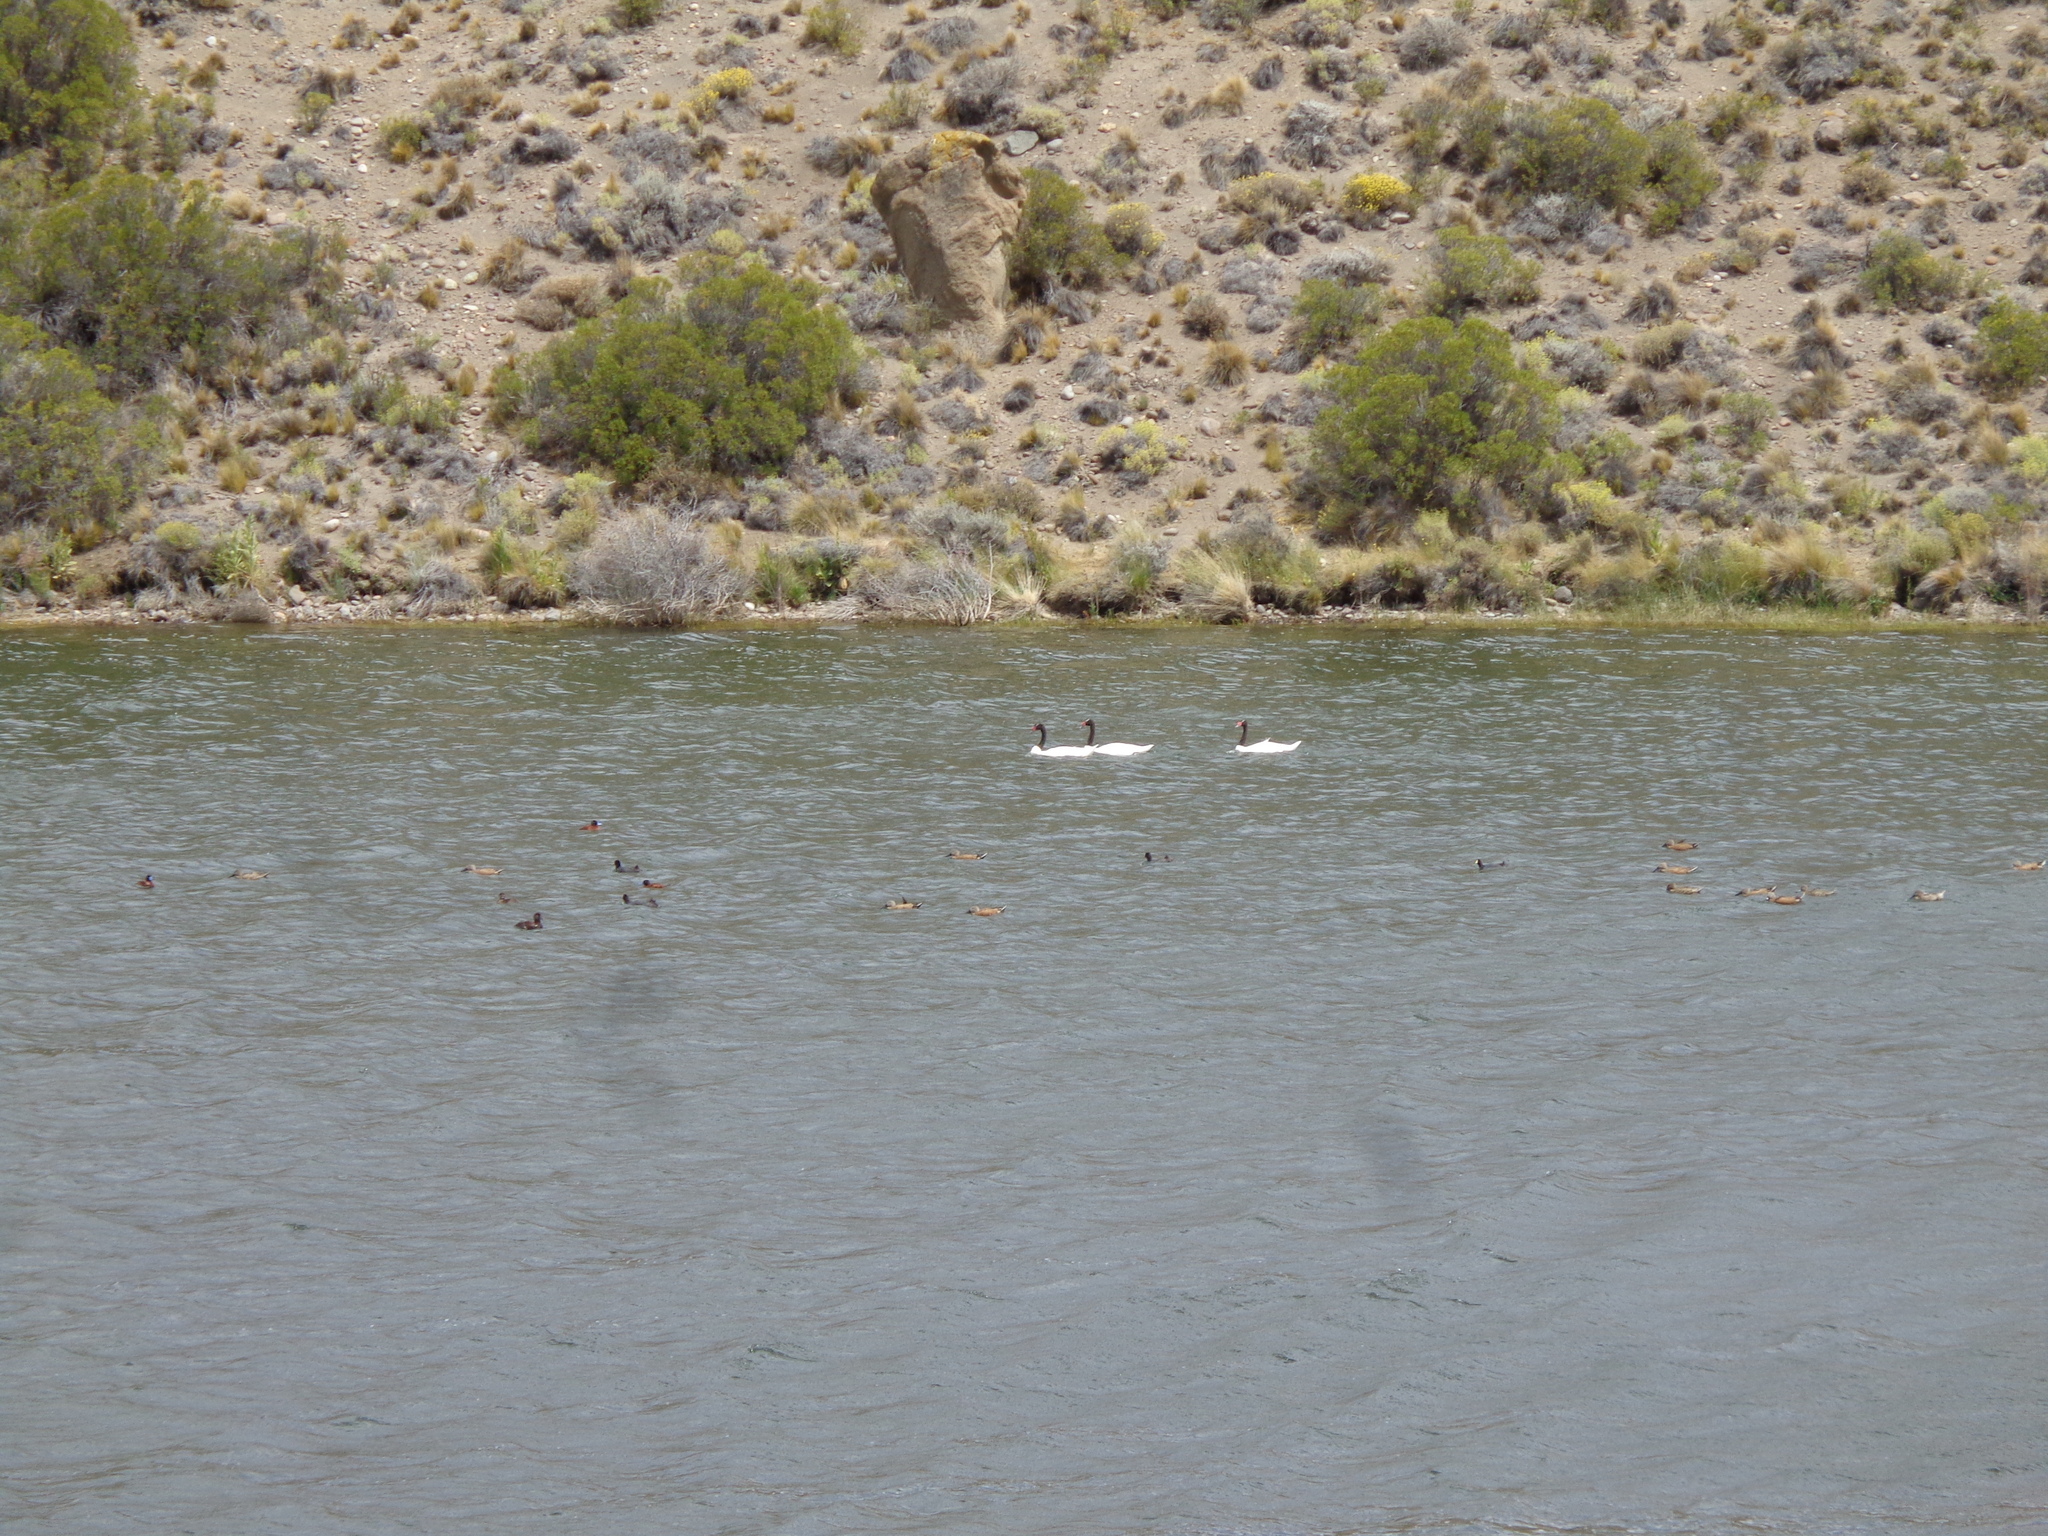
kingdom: Animalia
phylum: Chordata
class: Aves
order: Anseriformes
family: Anatidae
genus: Spatula
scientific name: Spatula platalea
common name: Red shoveler
